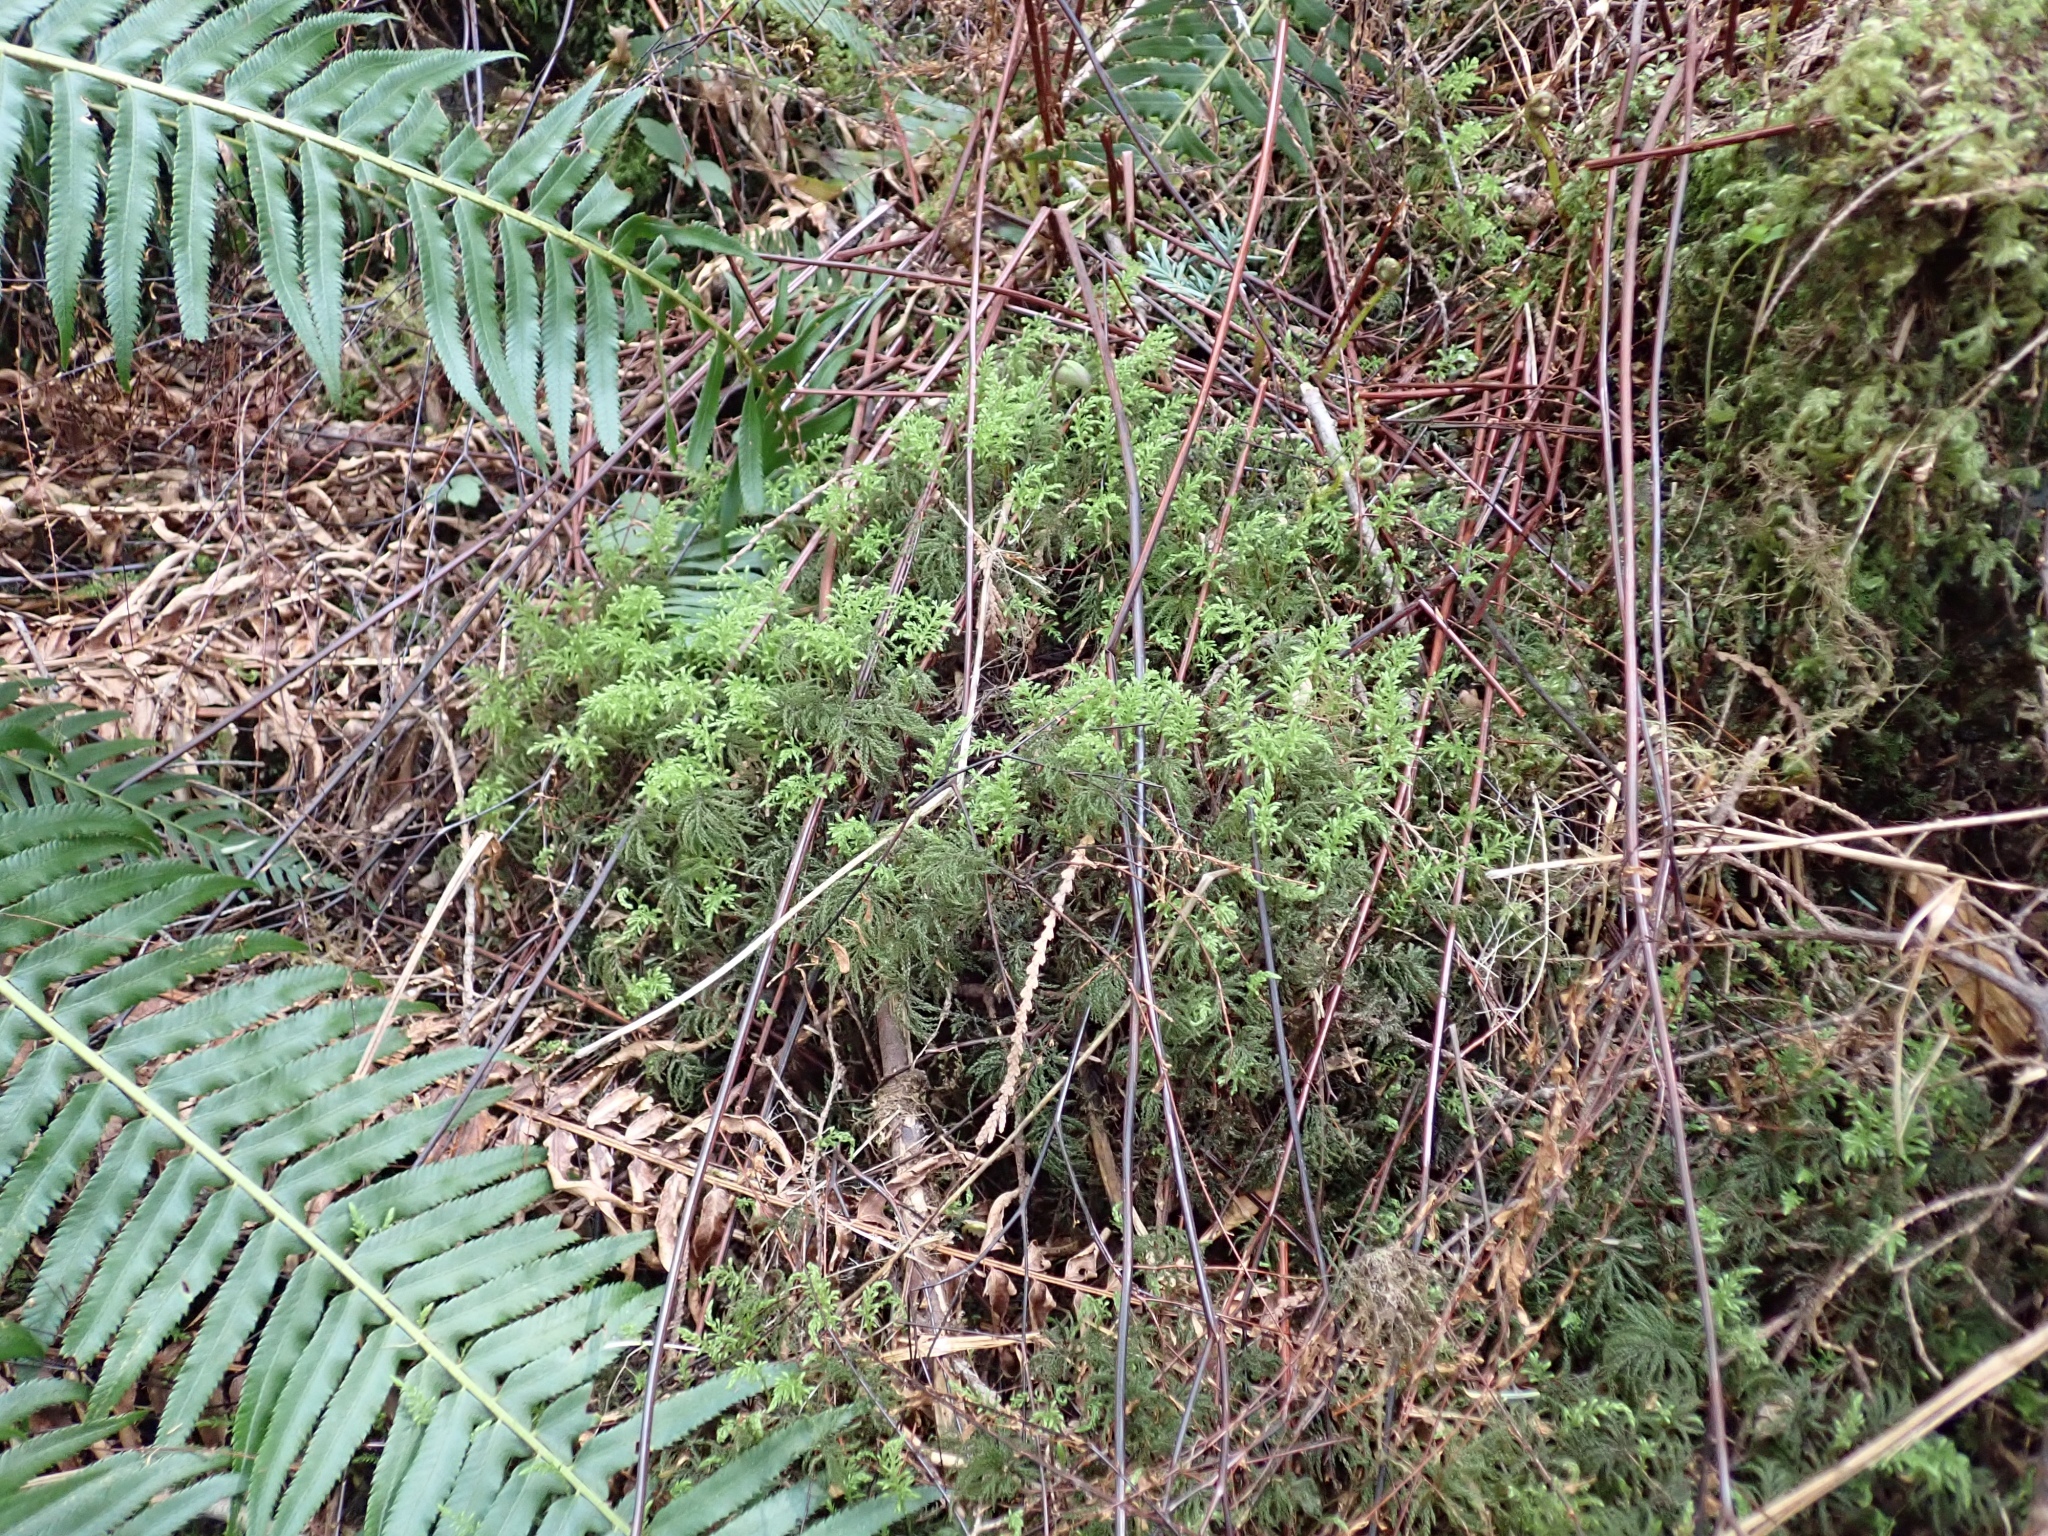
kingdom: Plantae
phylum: Bryophyta
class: Bryopsida
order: Bryales
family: Mniaceae
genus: Leucolepis
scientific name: Leucolepis acanthoneura
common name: Leucolepis umbrella moss
